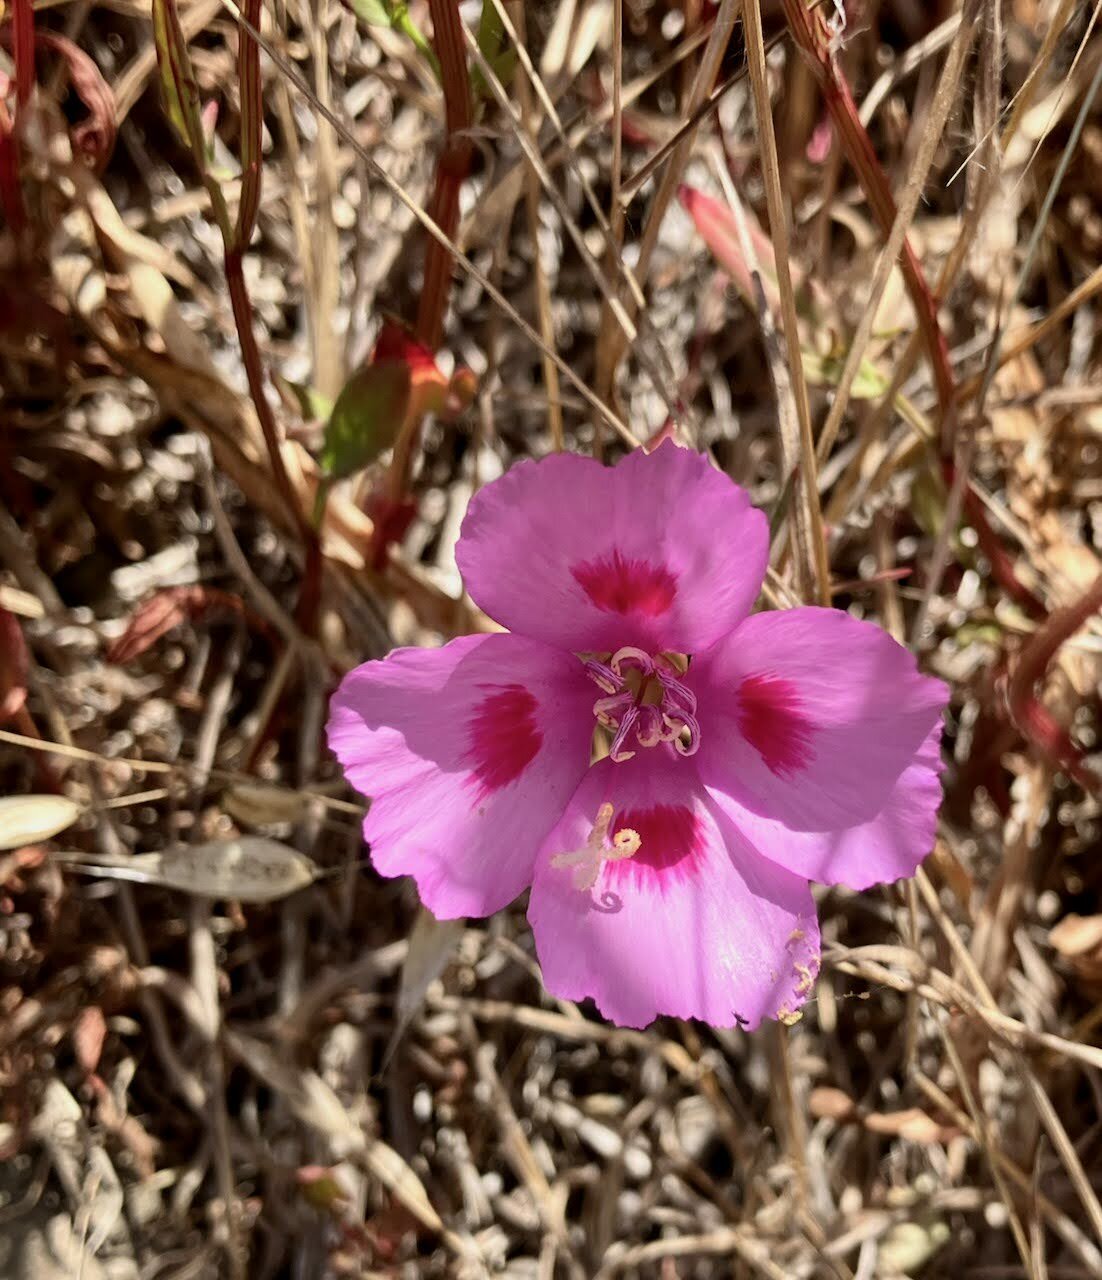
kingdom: Plantae
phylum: Tracheophyta
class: Magnoliopsida
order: Myrtales
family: Onagraceae
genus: Clarkia
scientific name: Clarkia amoena
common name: Godetia
